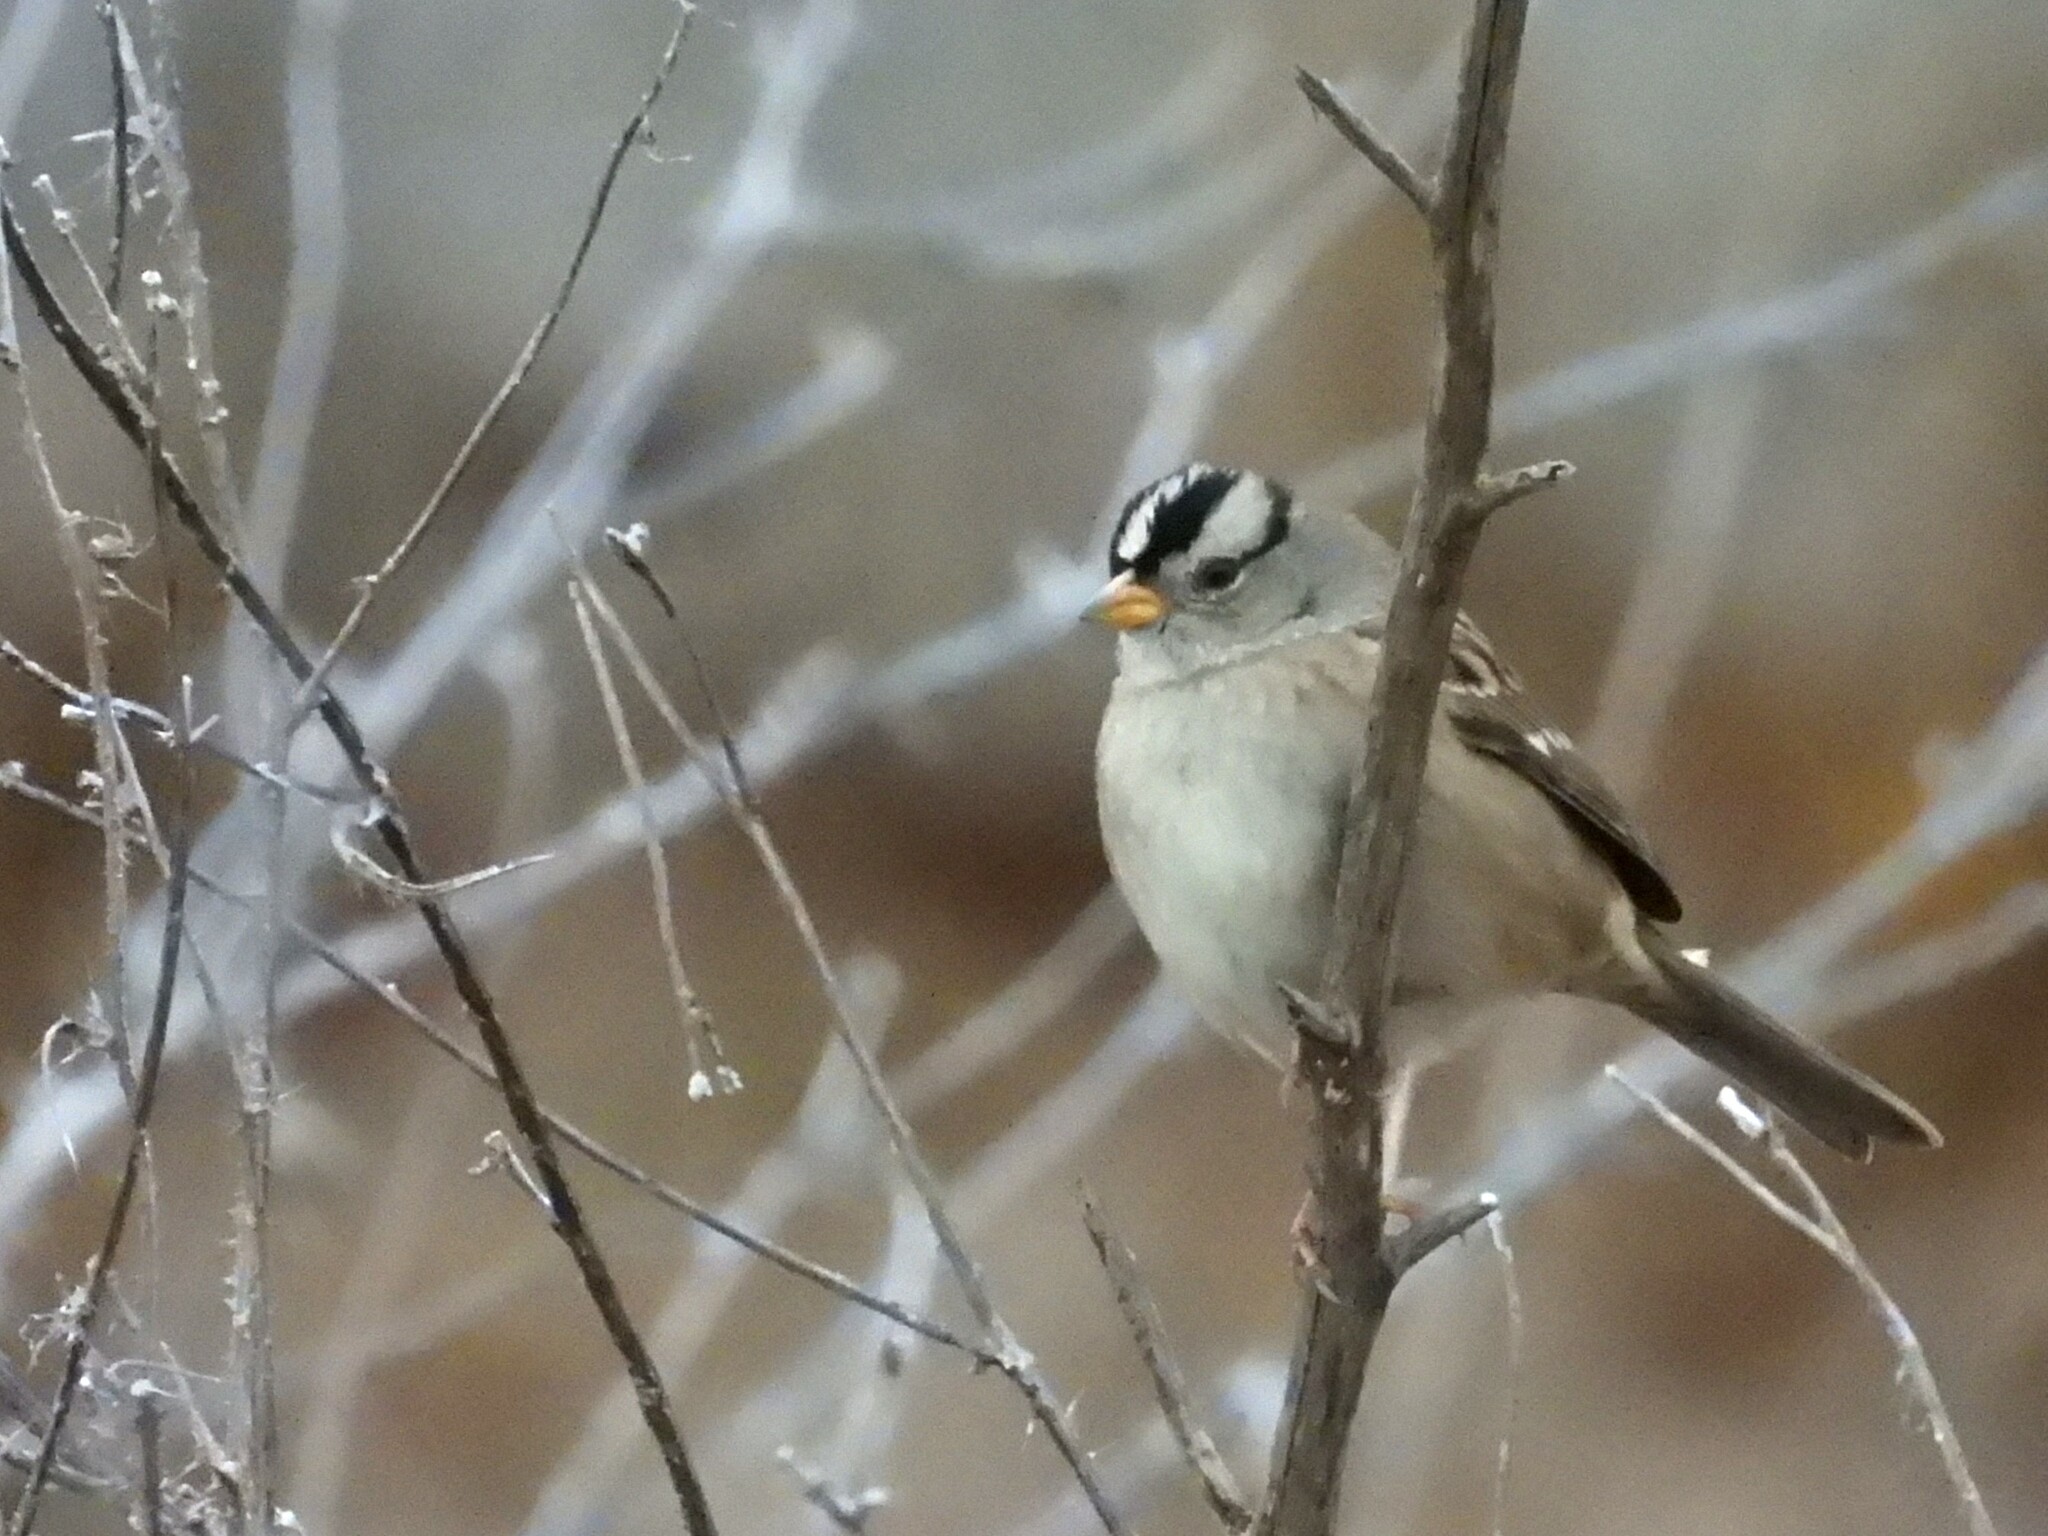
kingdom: Animalia
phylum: Chordata
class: Aves
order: Passeriformes
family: Passerellidae
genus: Zonotrichia
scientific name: Zonotrichia leucophrys
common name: White-crowned sparrow
